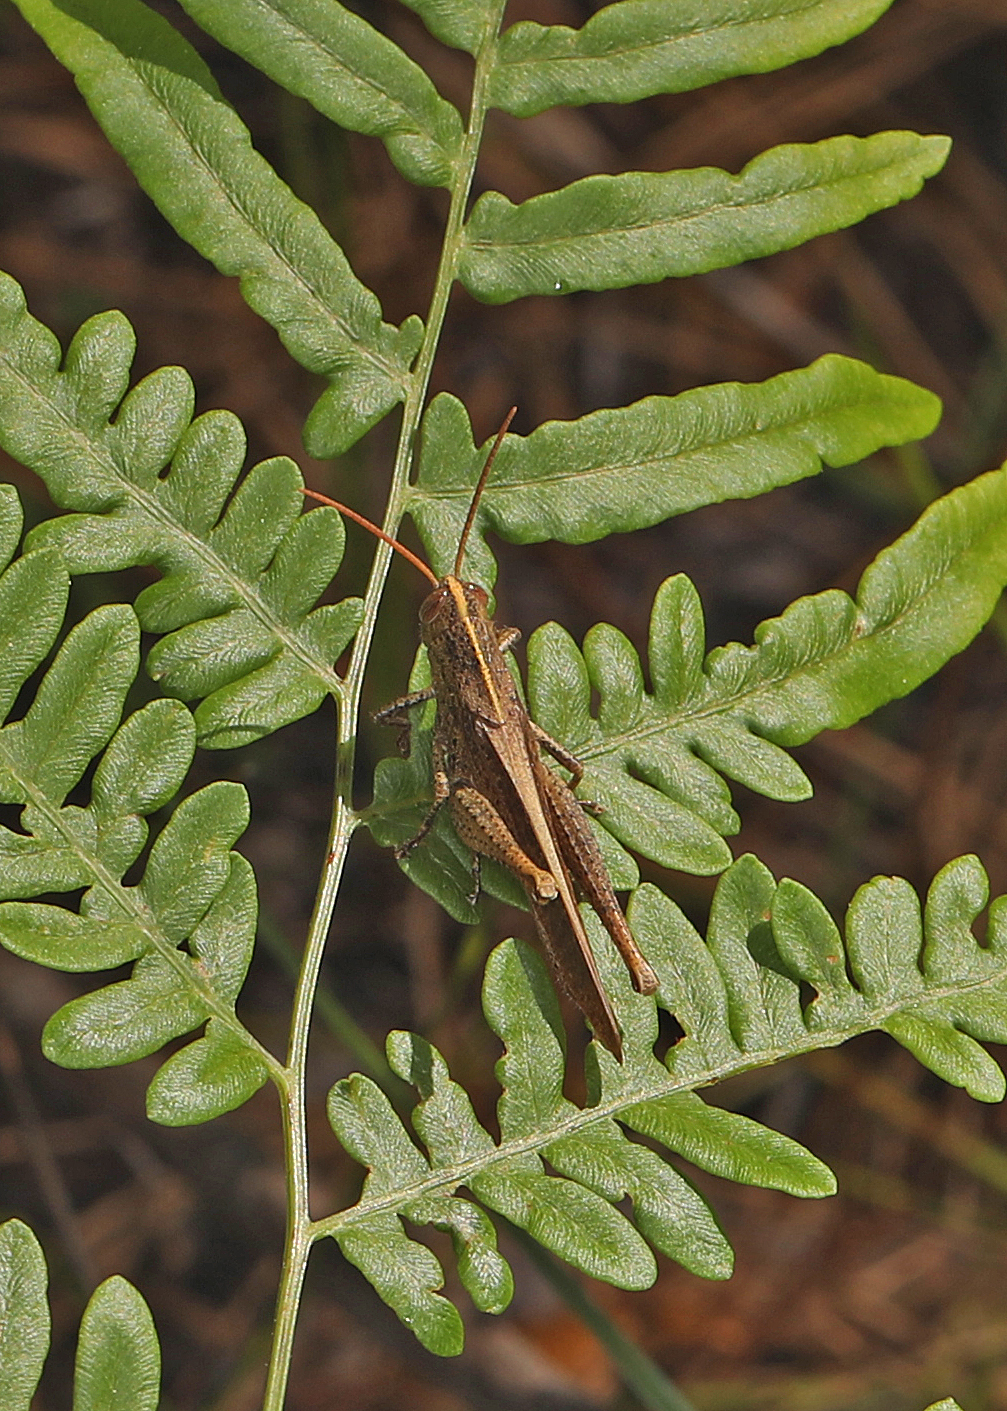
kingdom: Animalia
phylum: Arthropoda
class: Insecta
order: Orthoptera
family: Acrididae
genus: Schistocerca
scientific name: Schistocerca damnifica
